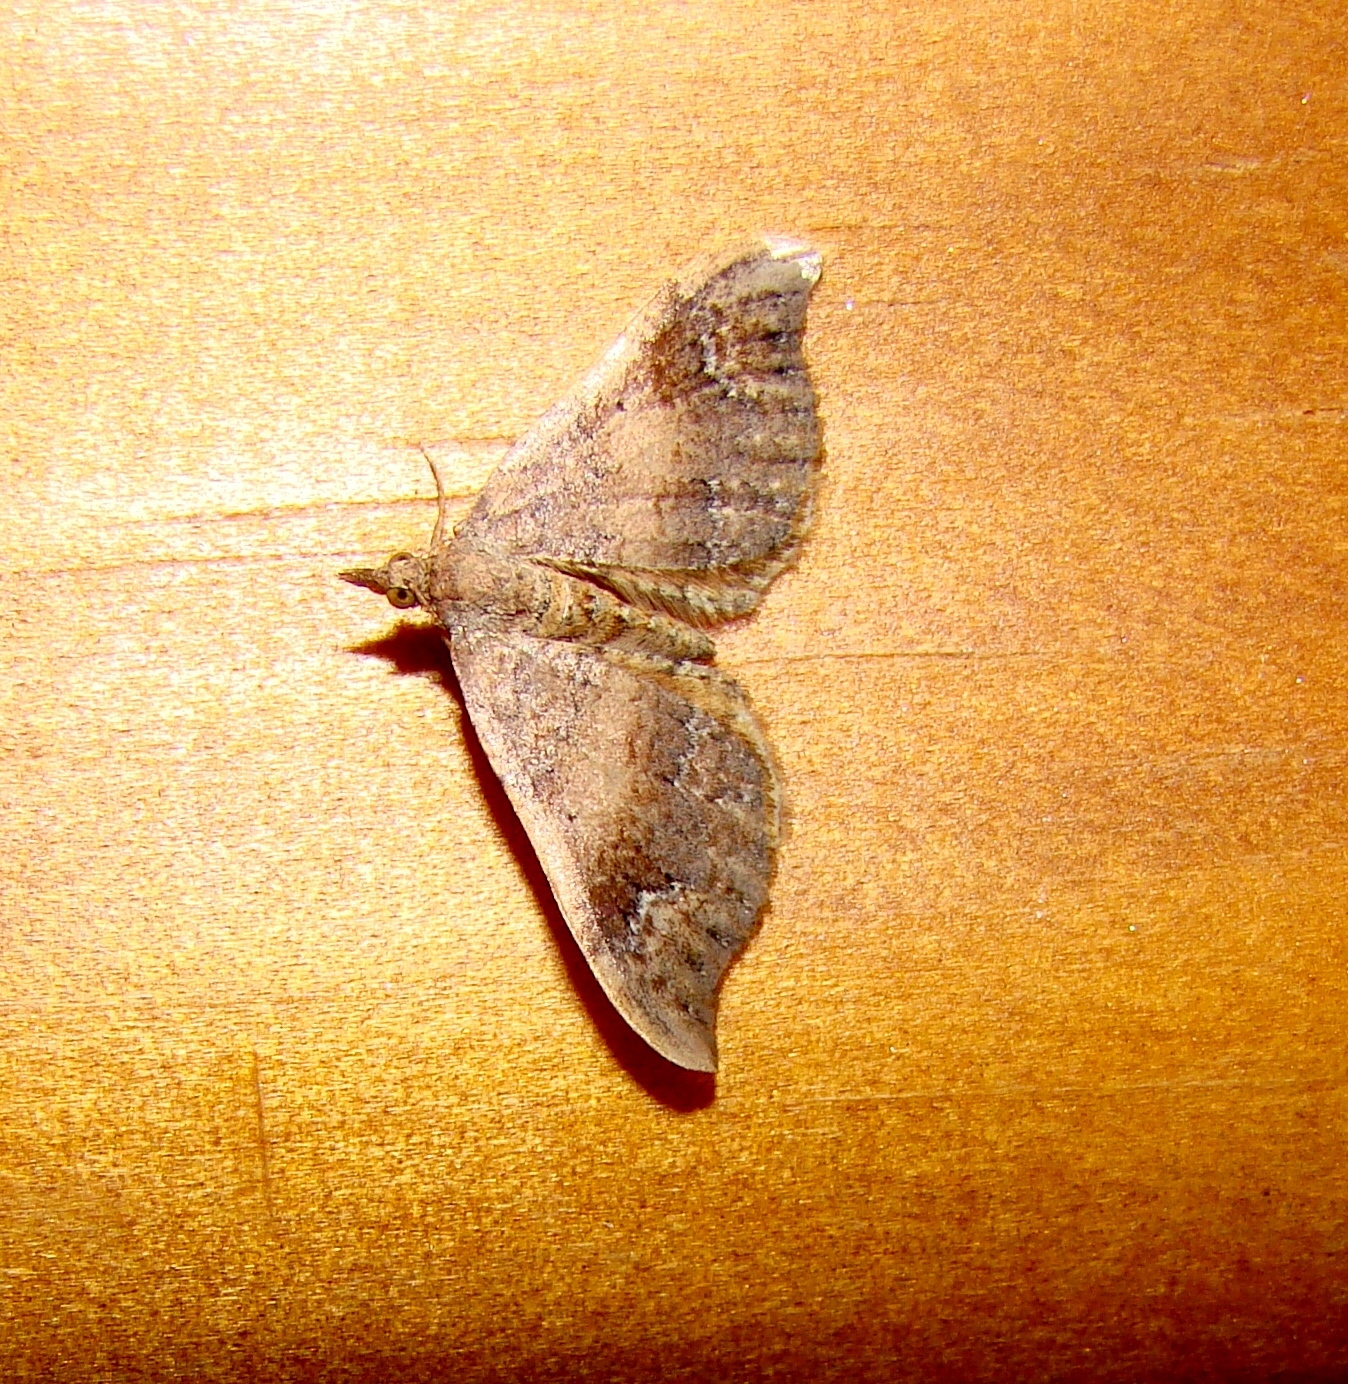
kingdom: Animalia
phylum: Arthropoda
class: Insecta
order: Lepidoptera
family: Geometridae
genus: Homodotis
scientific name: Homodotis megaspilata
